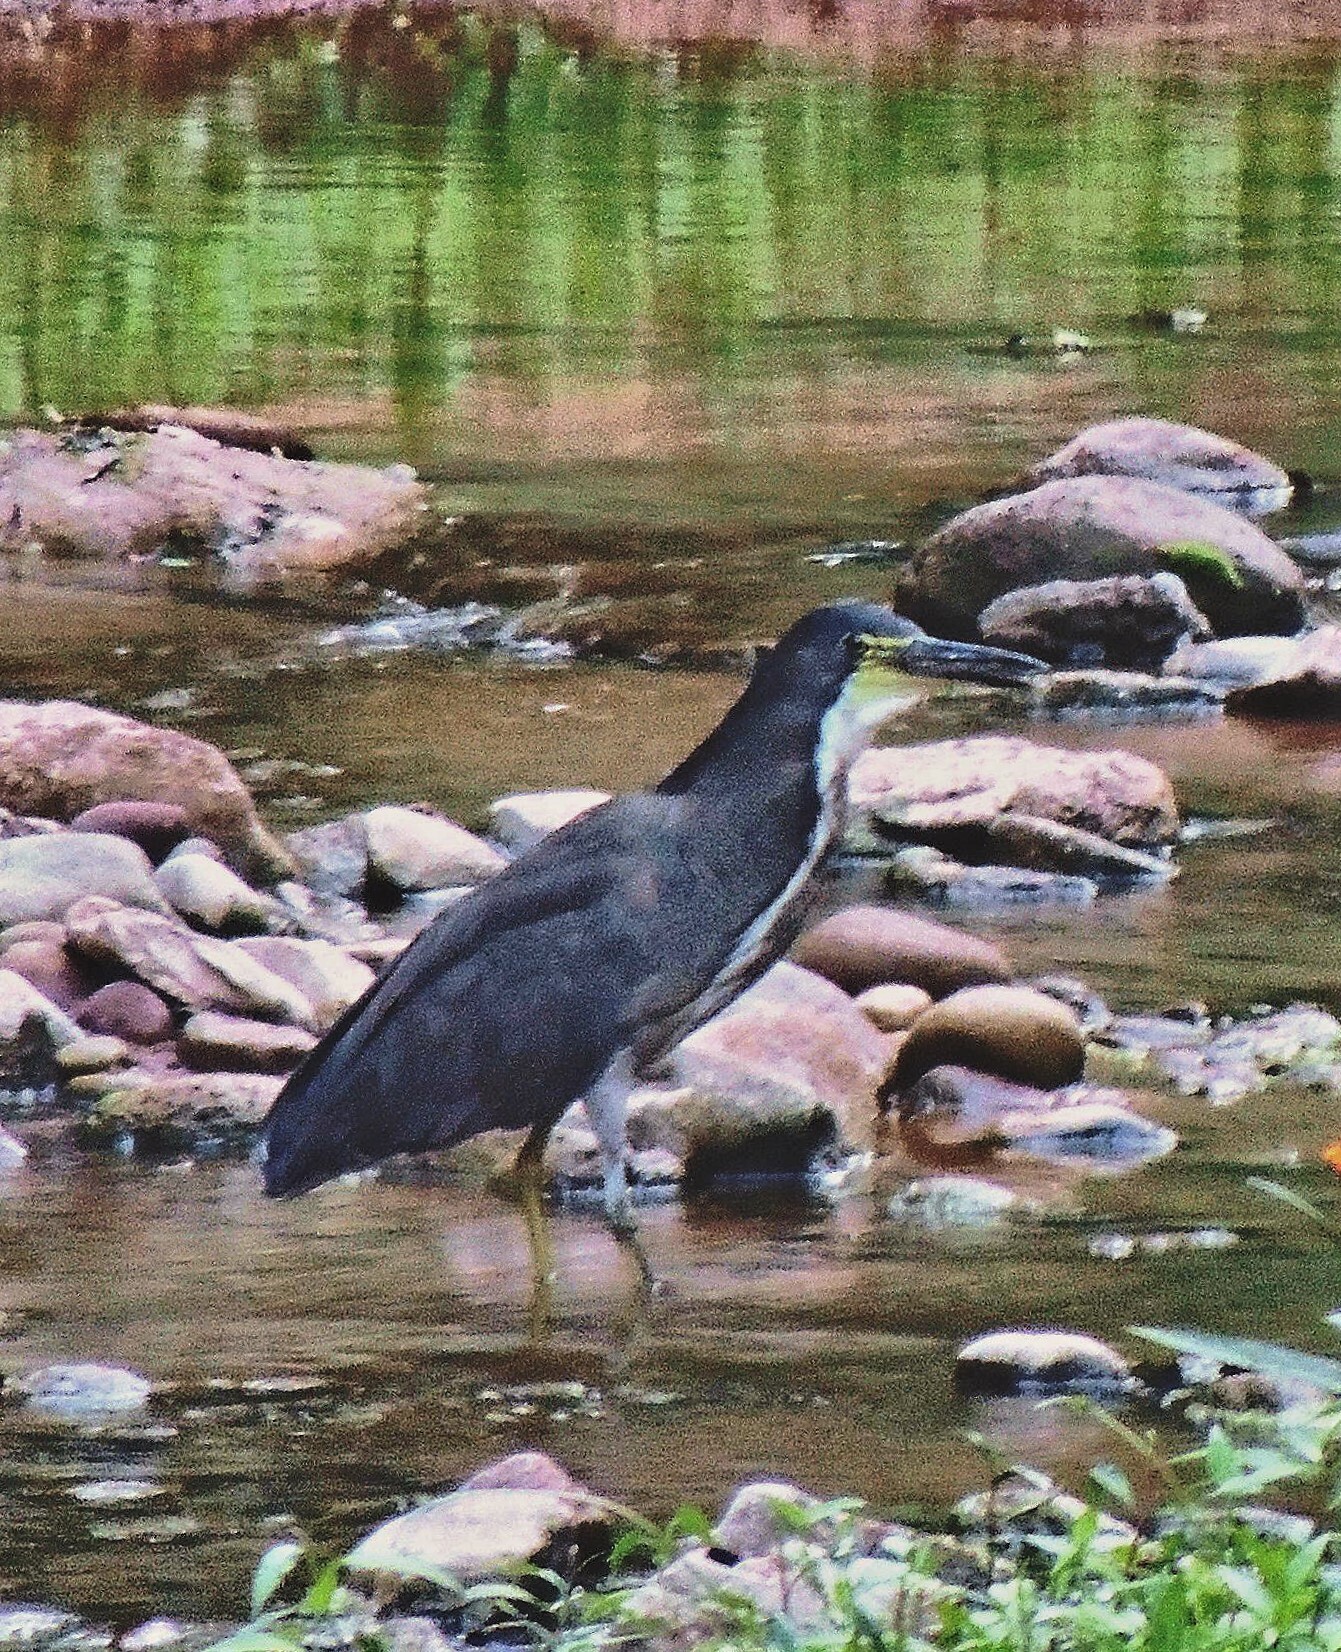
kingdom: Animalia
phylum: Chordata
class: Aves
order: Pelecaniformes
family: Ardeidae
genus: Tigrisoma
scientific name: Tigrisoma fasciatum
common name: Fasciated tiger-heron
